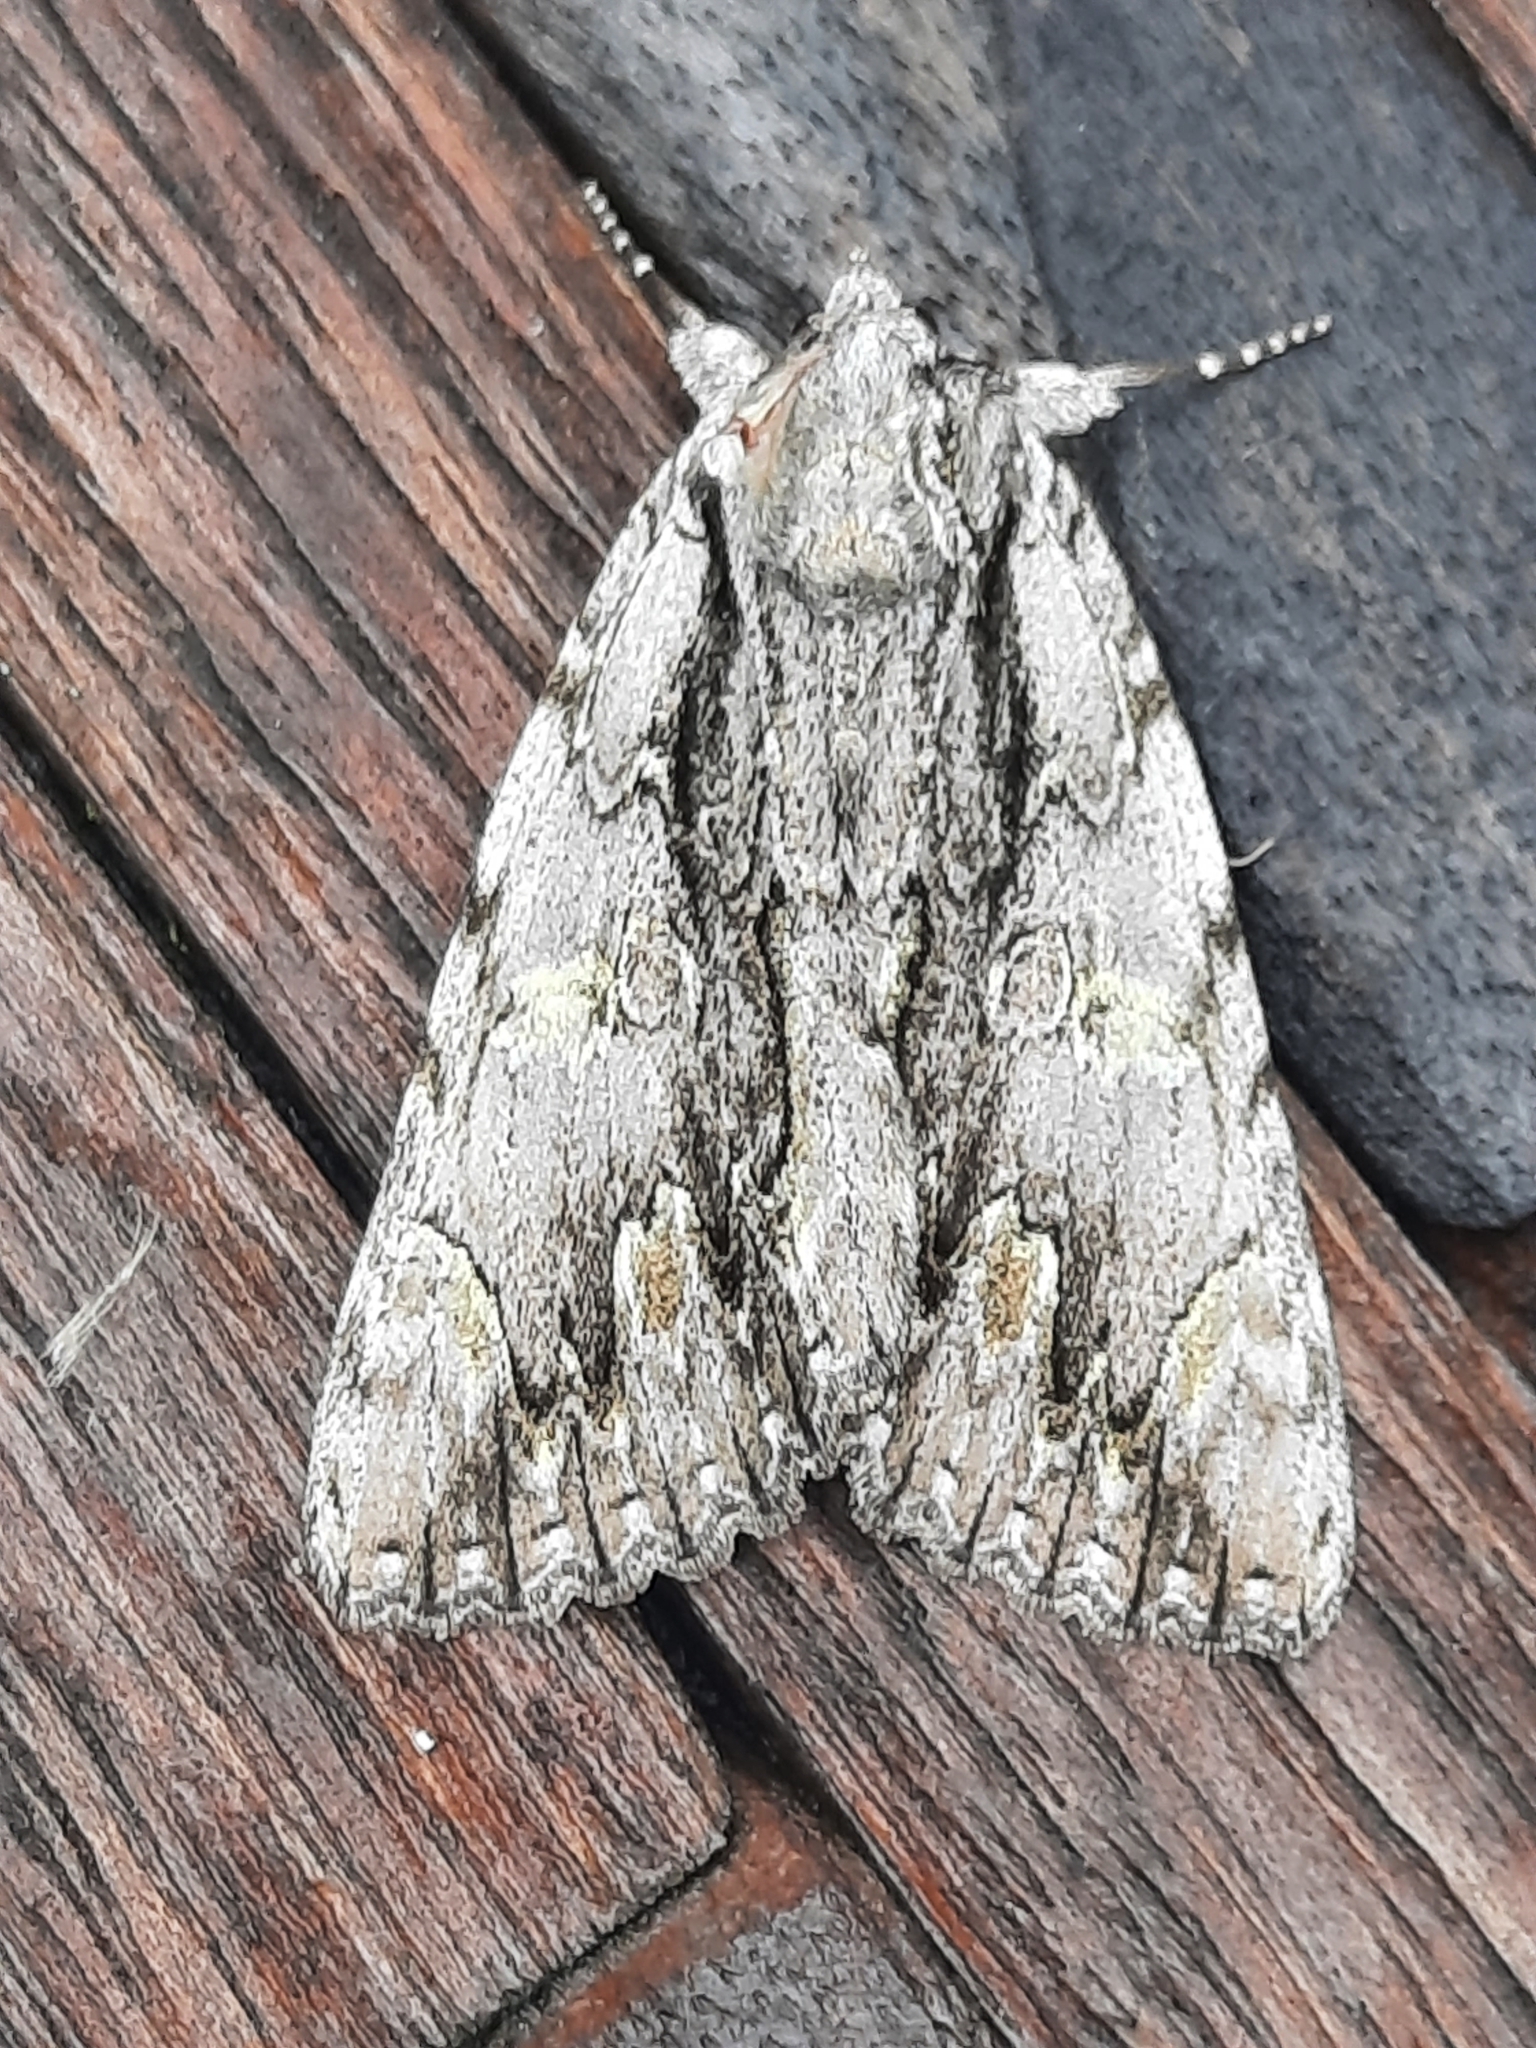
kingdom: Animalia
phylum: Arthropoda
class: Insecta
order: Lepidoptera
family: Erebidae
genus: Catocala
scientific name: Catocala coccinata
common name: Scarlet underwing
